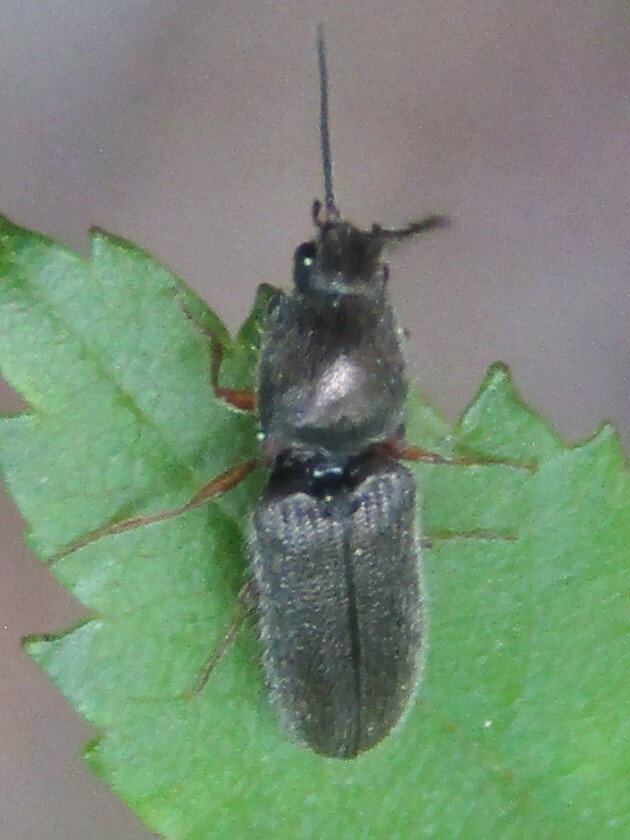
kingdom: Animalia
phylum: Arthropoda
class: Insecta
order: Coleoptera
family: Elateridae
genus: Limonius
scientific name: Limonius basilaris
